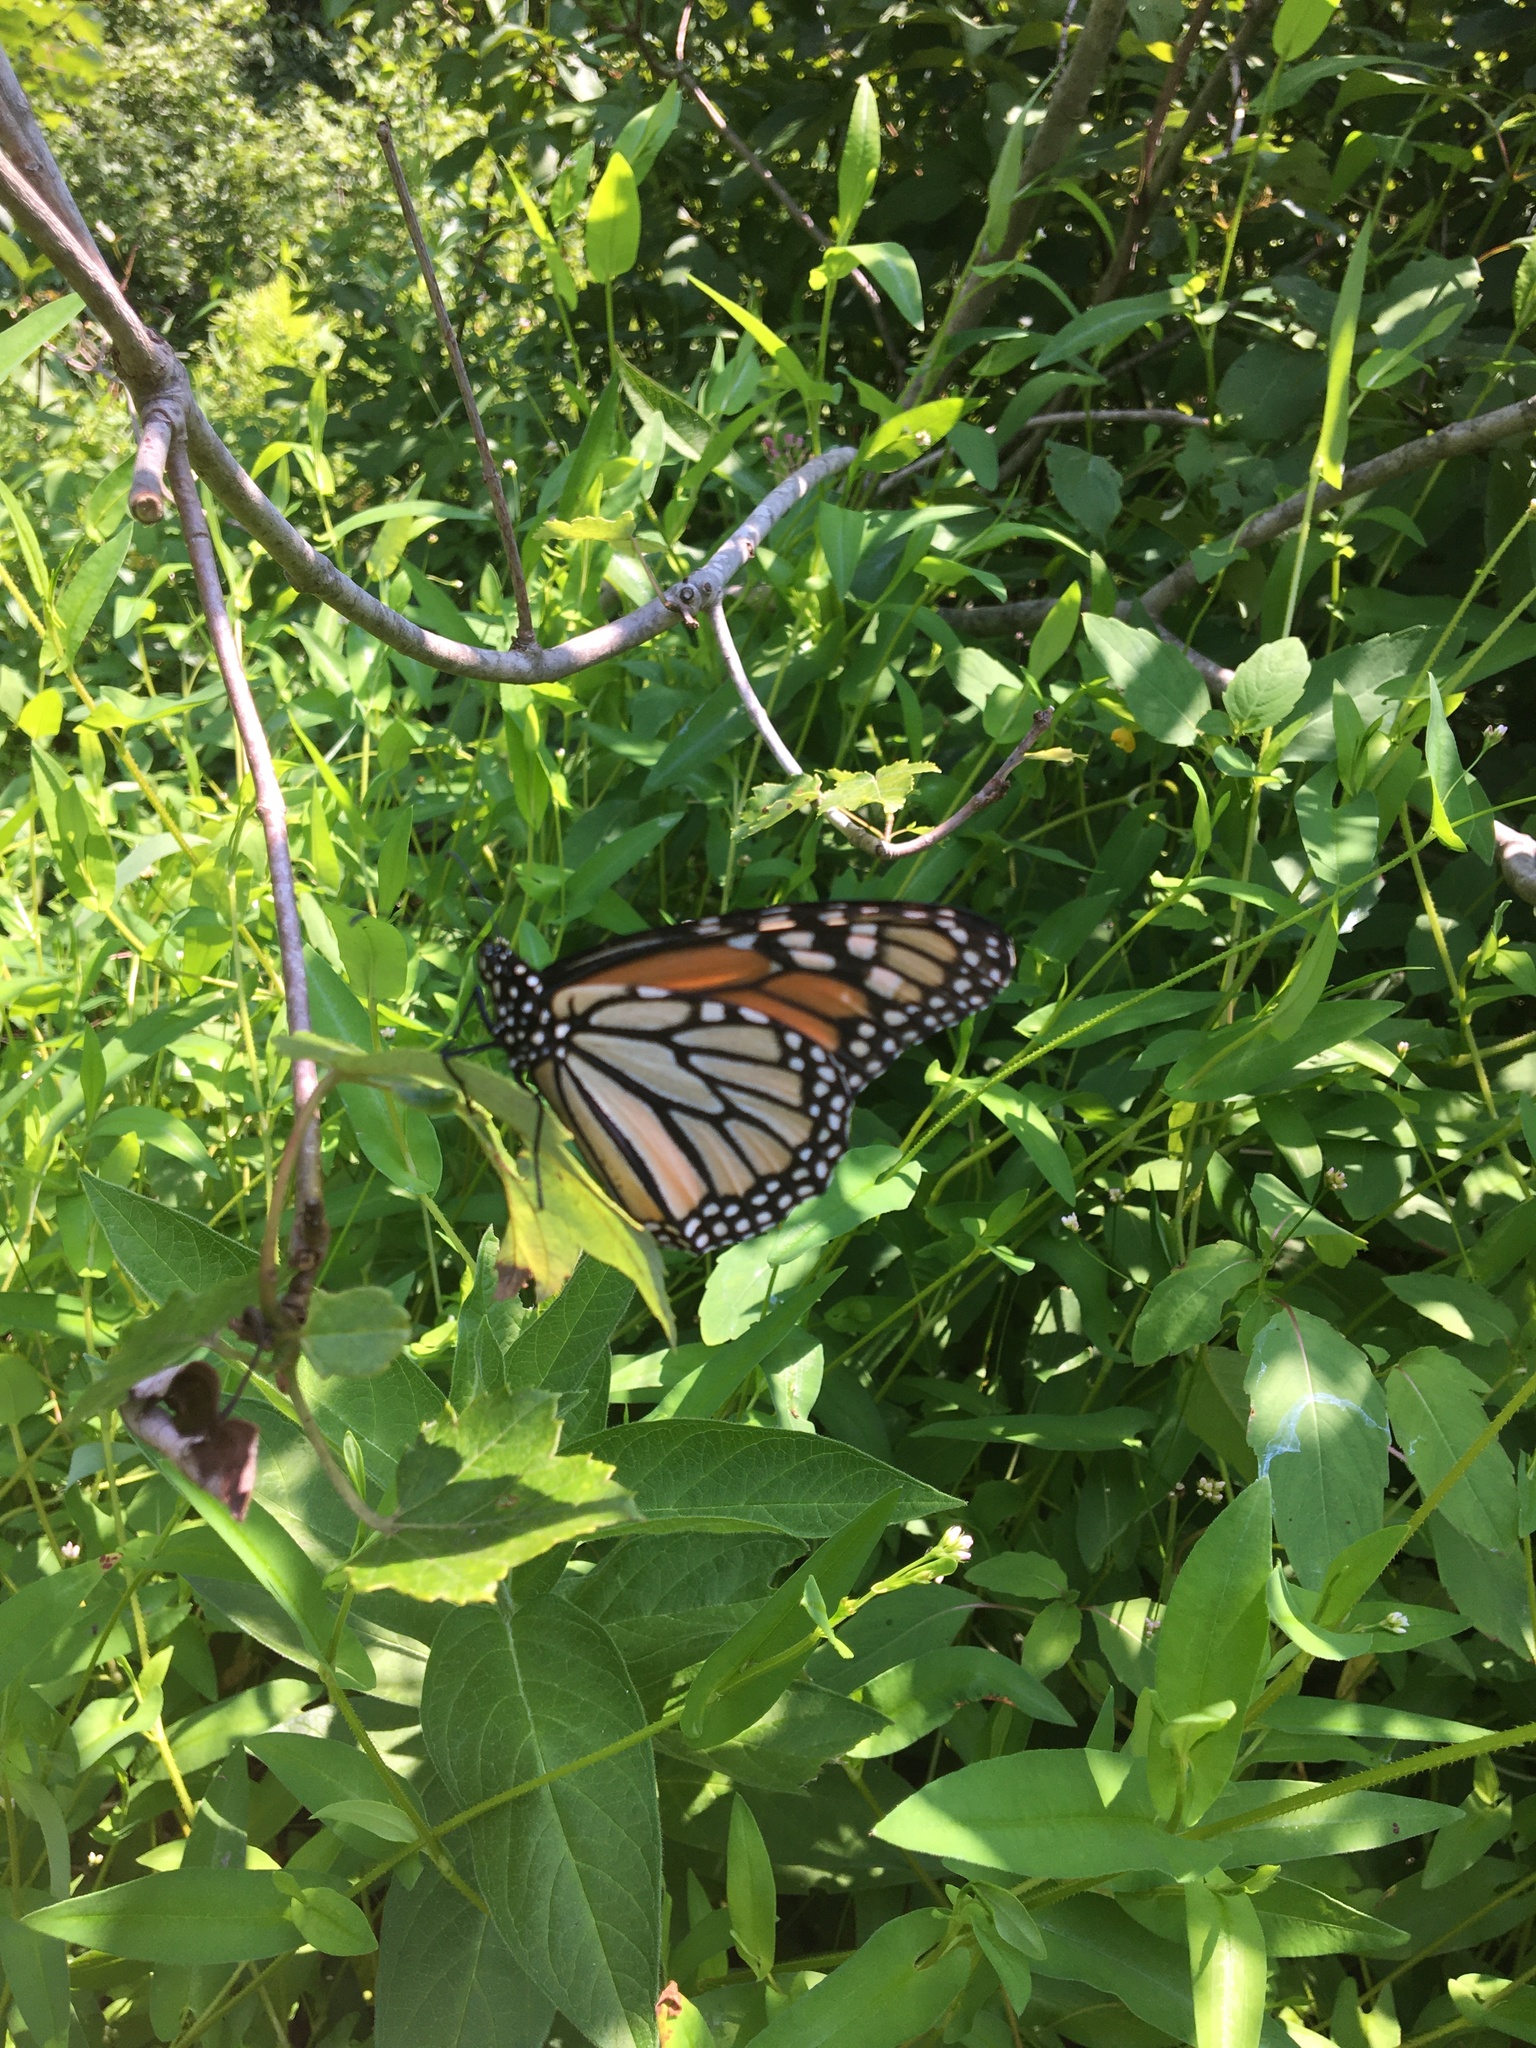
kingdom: Animalia
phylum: Arthropoda
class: Insecta
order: Lepidoptera
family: Nymphalidae
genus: Danaus
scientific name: Danaus plexippus
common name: Monarch
